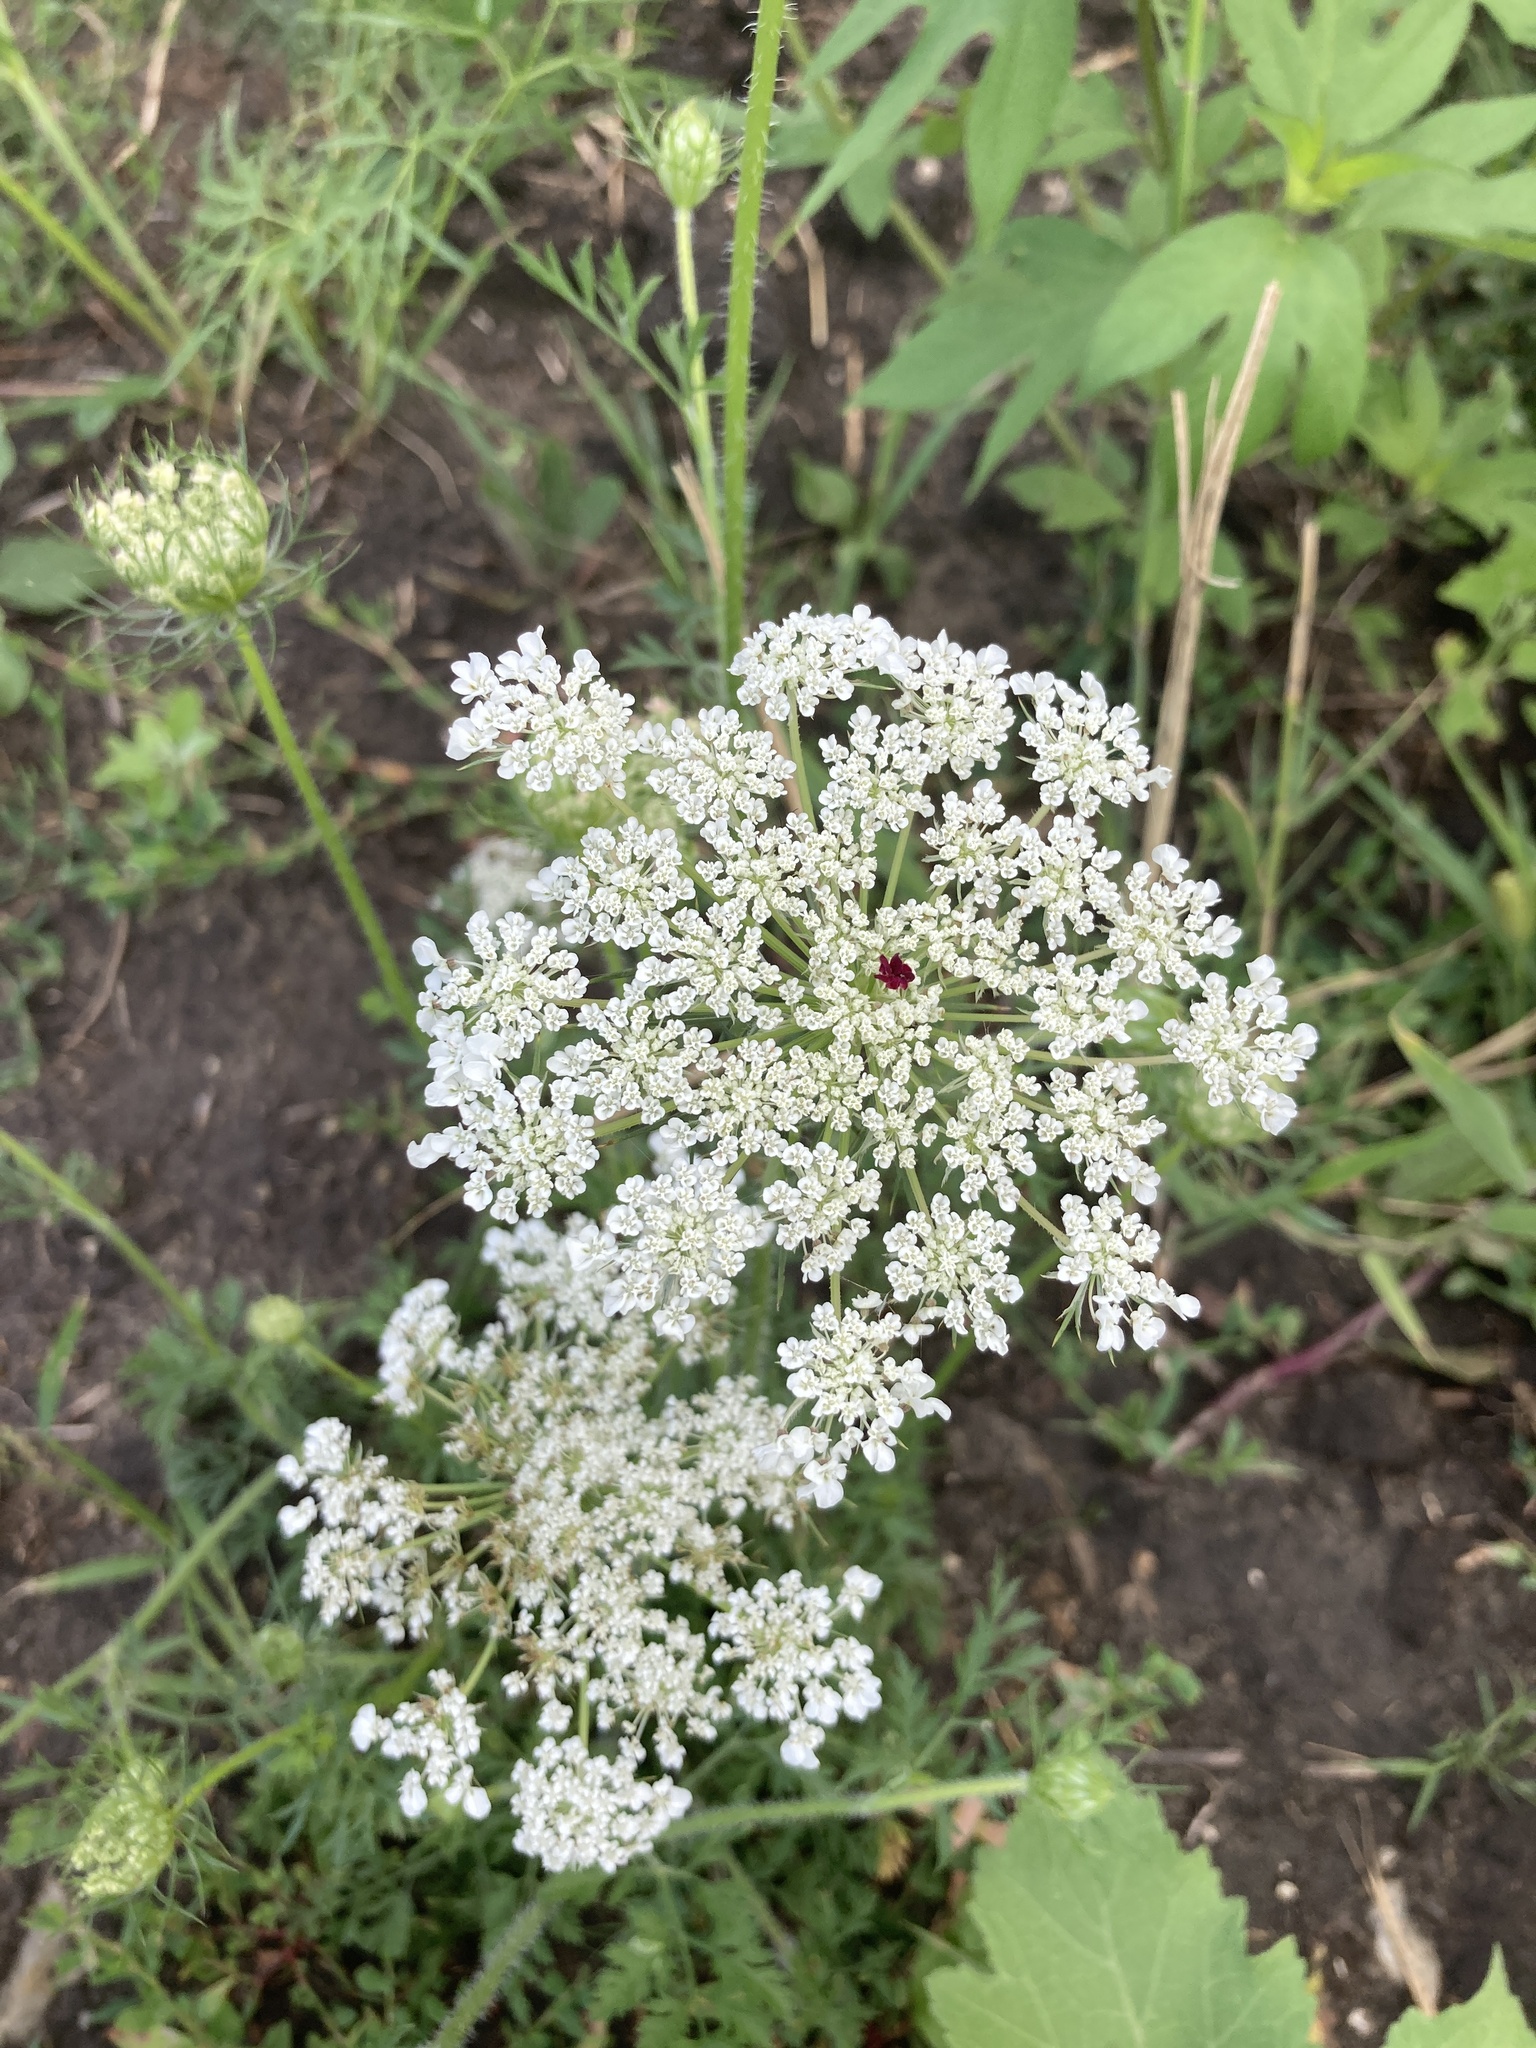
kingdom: Plantae
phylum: Tracheophyta
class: Magnoliopsida
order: Apiales
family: Apiaceae
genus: Daucus
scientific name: Daucus carota
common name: Wild carrot
